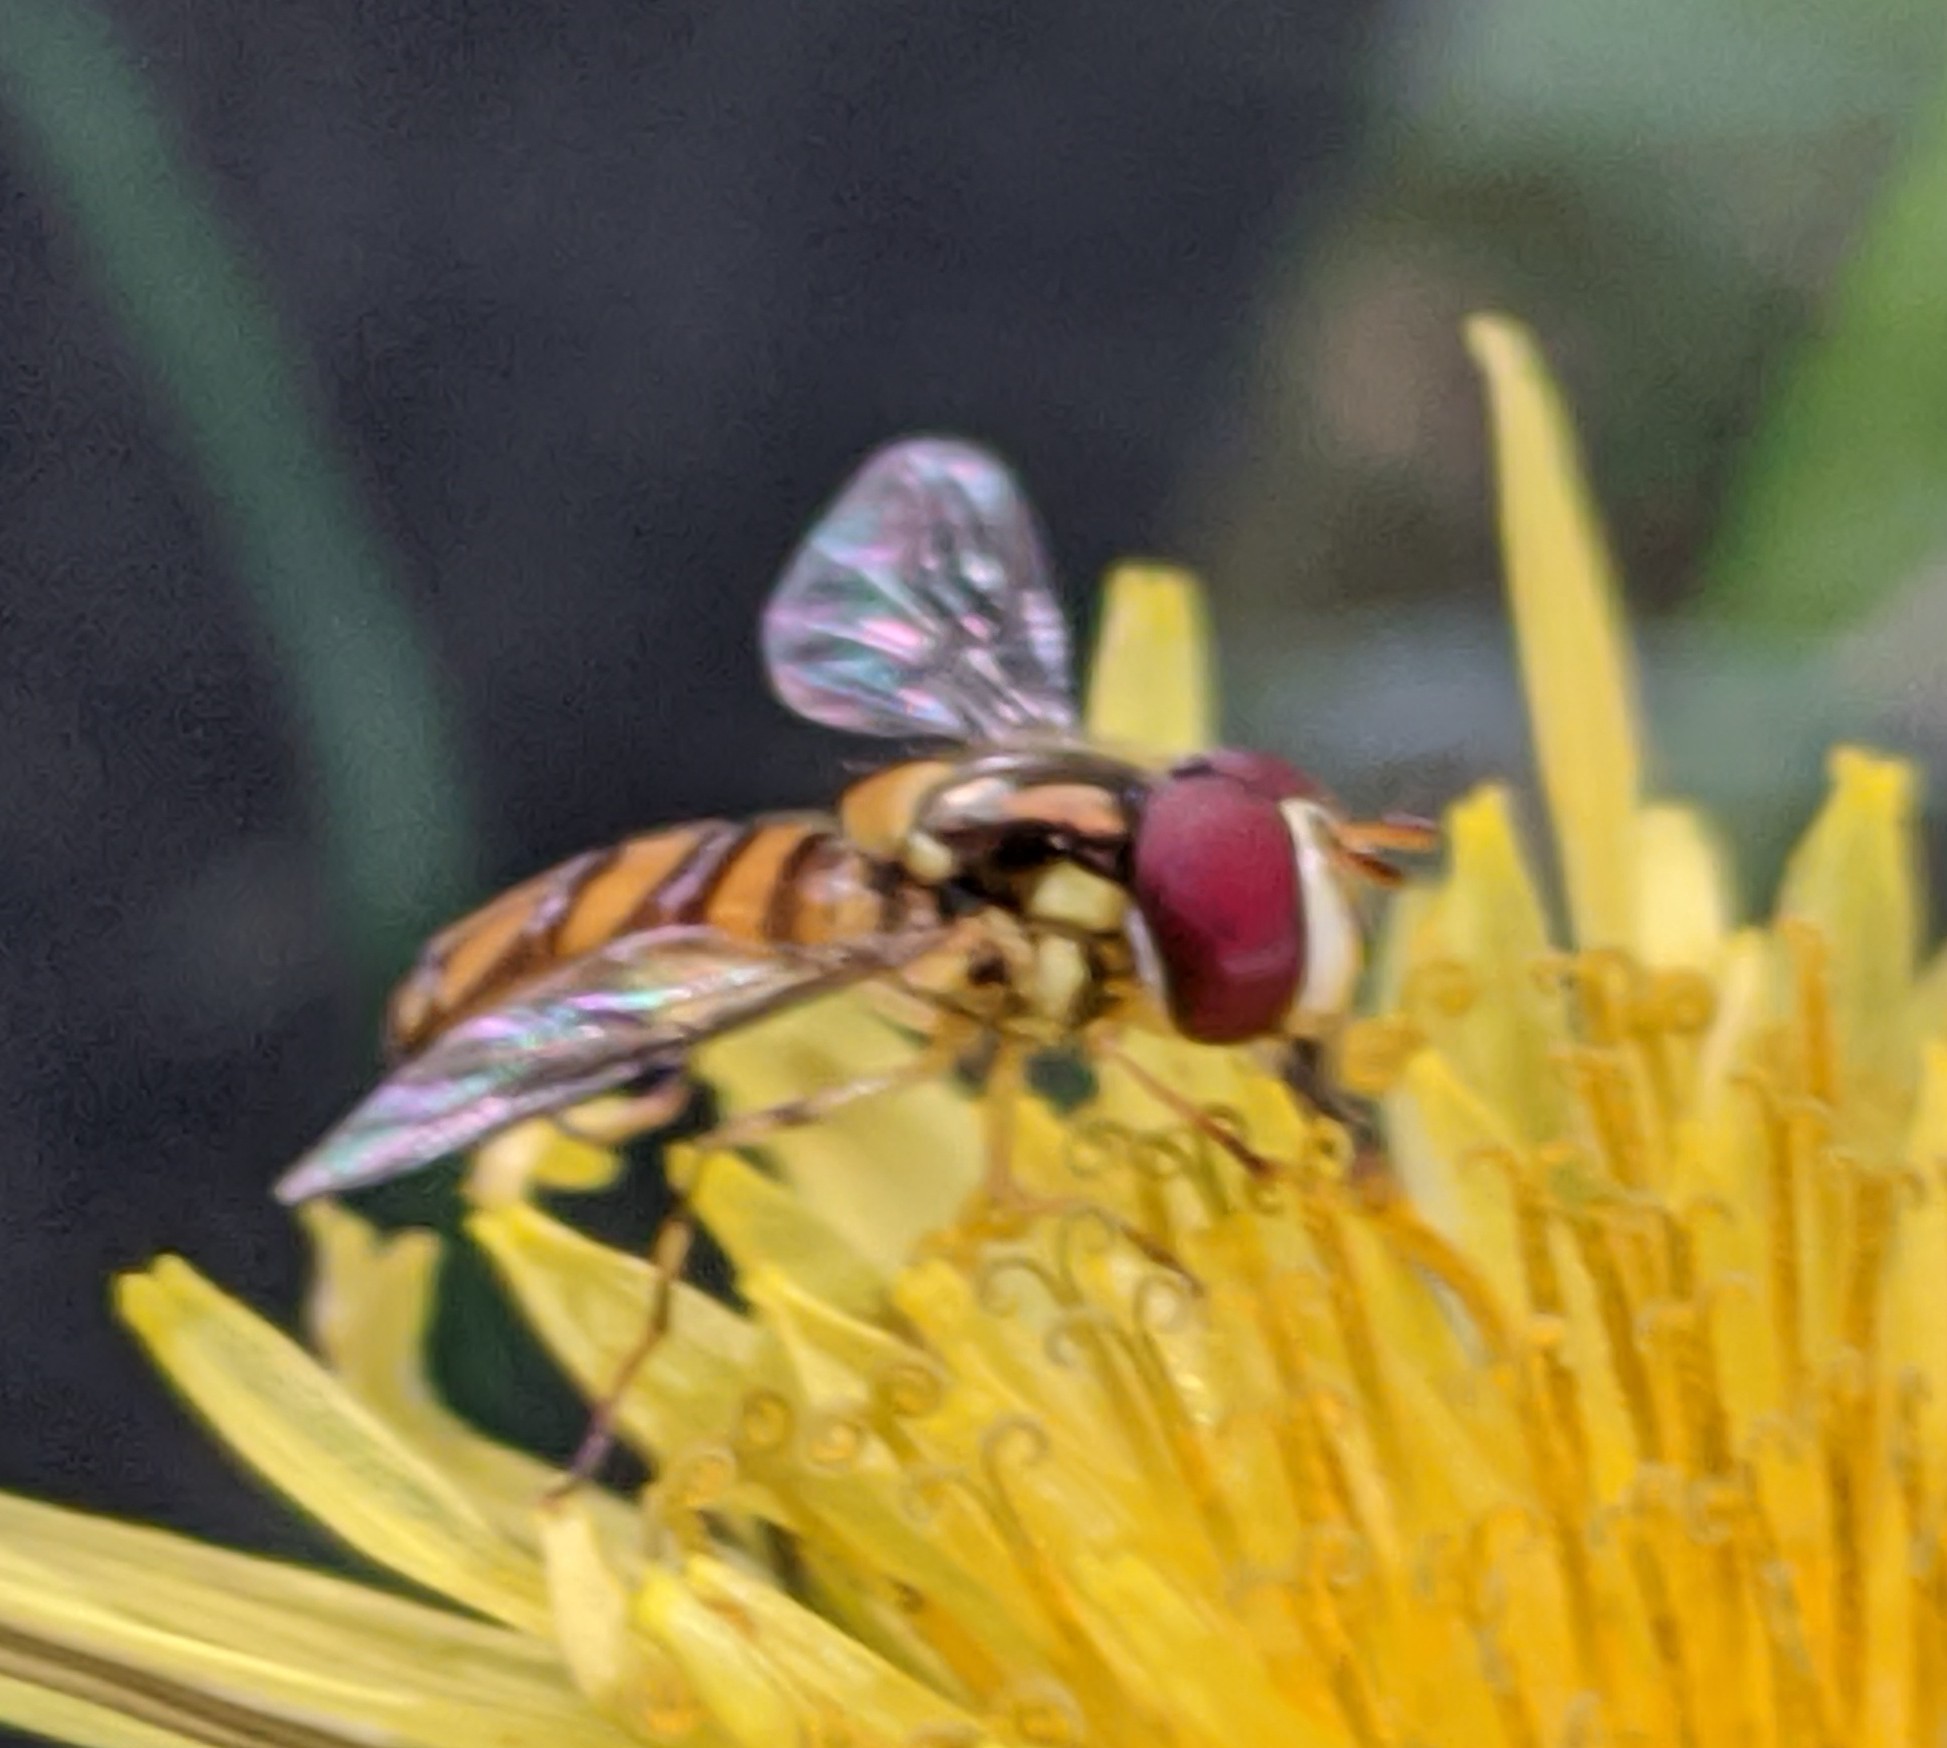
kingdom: Animalia
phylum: Arthropoda
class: Insecta
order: Diptera
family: Syrphidae
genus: Allograpta
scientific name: Allograpta obliqua
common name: Common oblique syrphid
